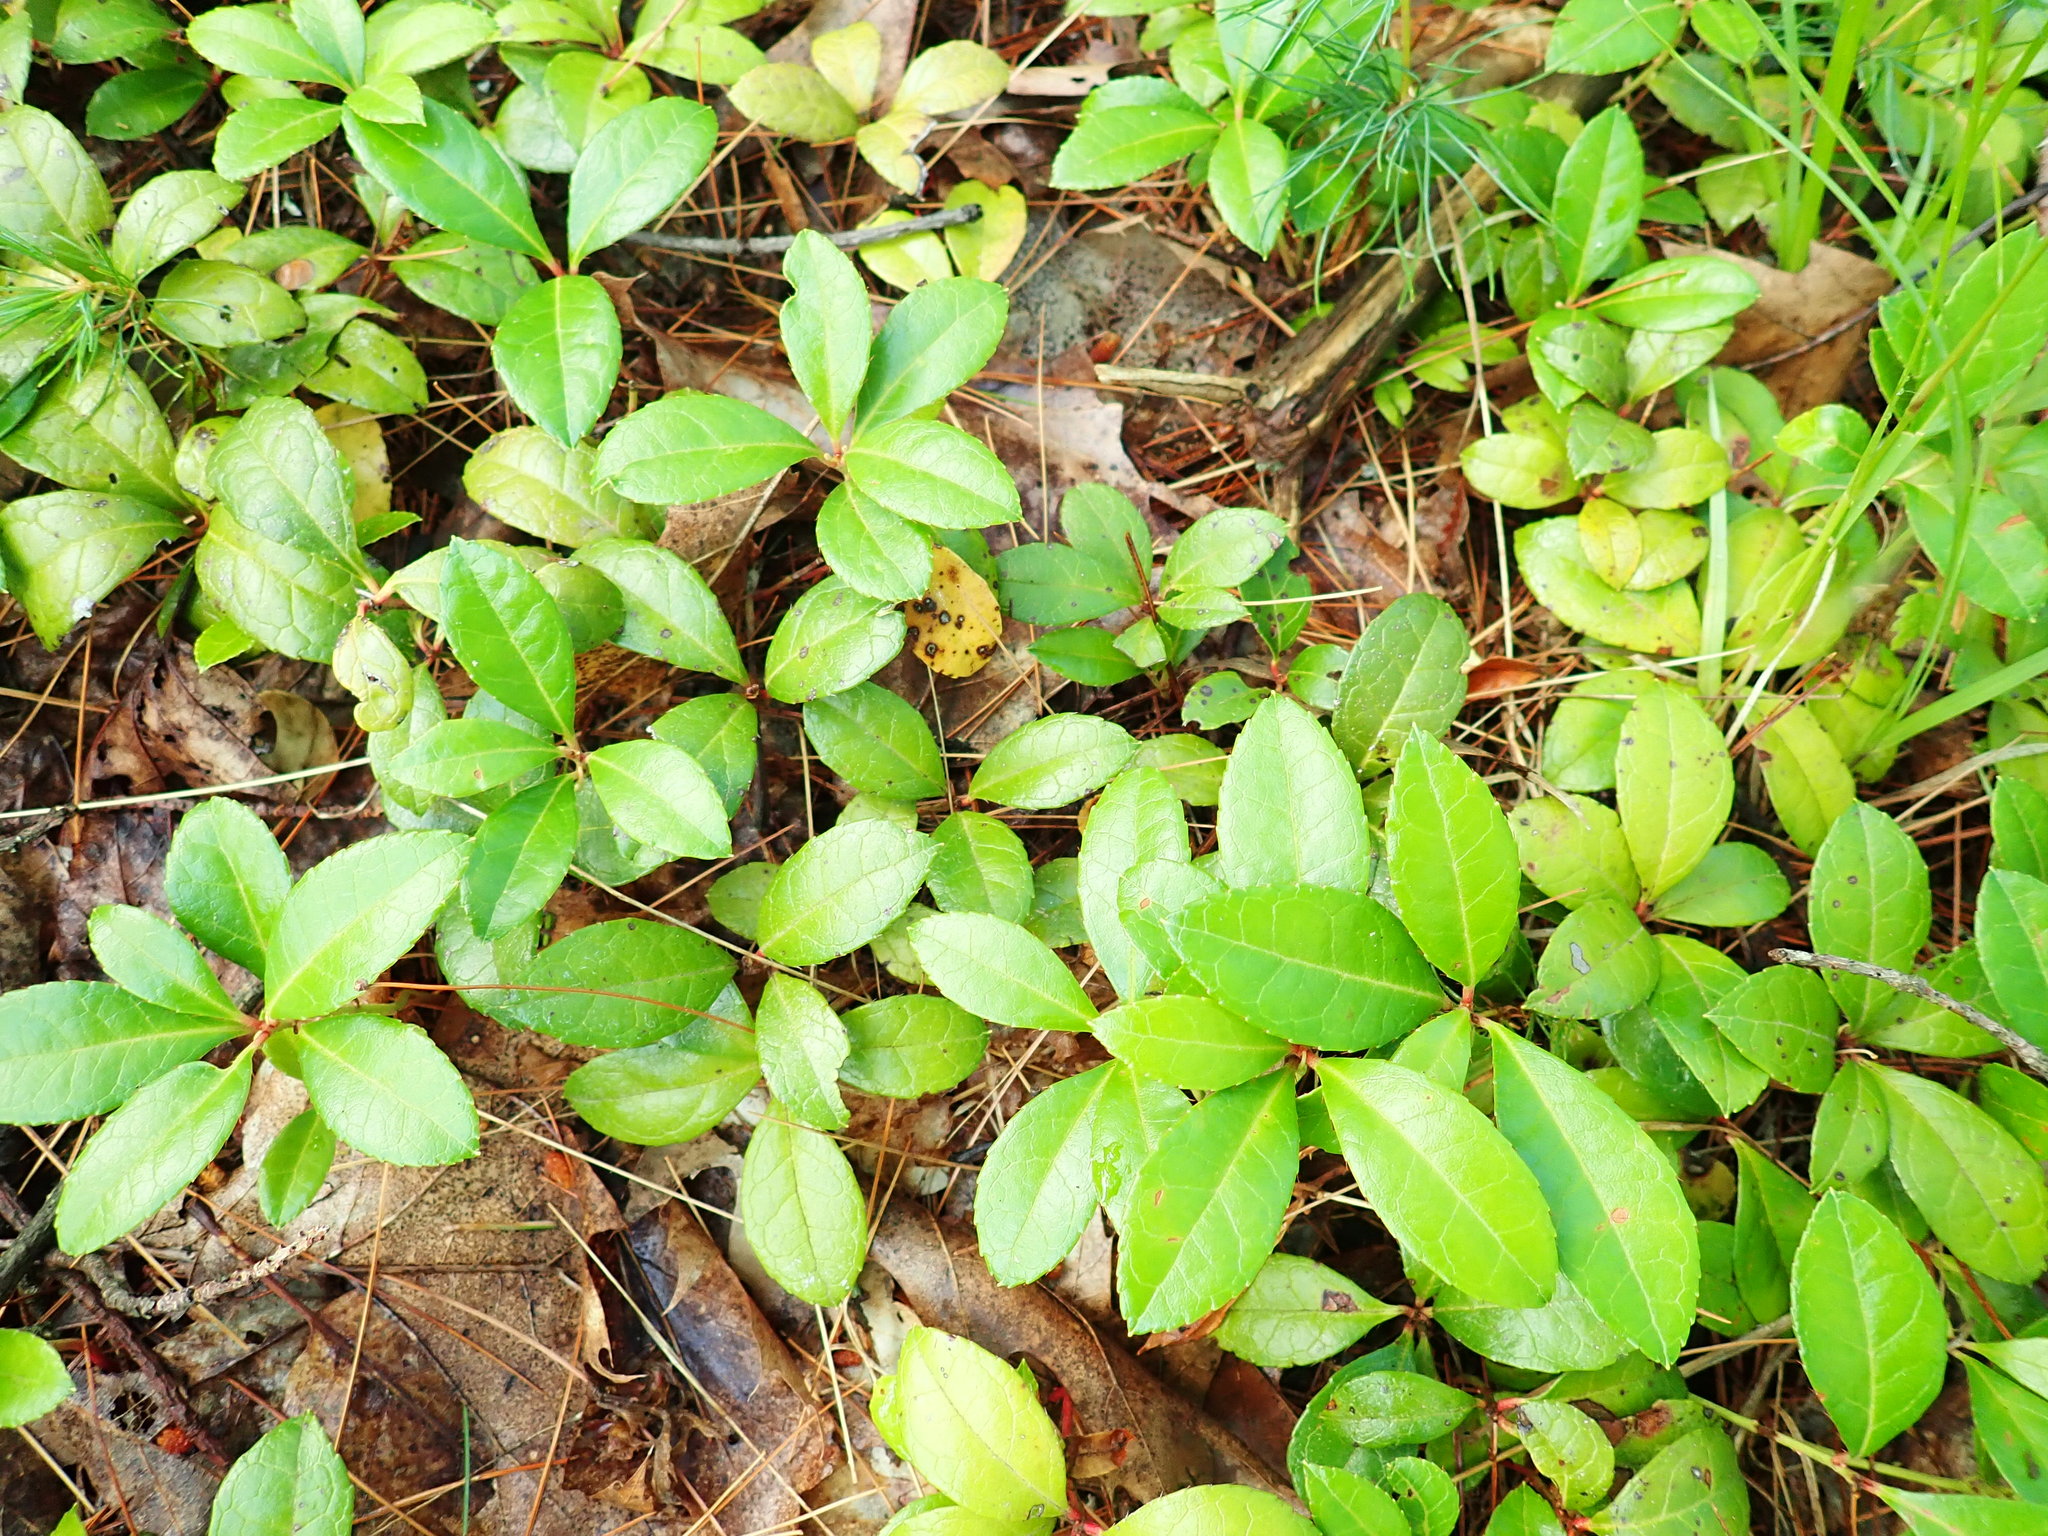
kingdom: Plantae
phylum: Tracheophyta
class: Magnoliopsida
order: Ericales
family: Ericaceae
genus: Gaultheria
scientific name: Gaultheria procumbens
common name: Checkerberry
